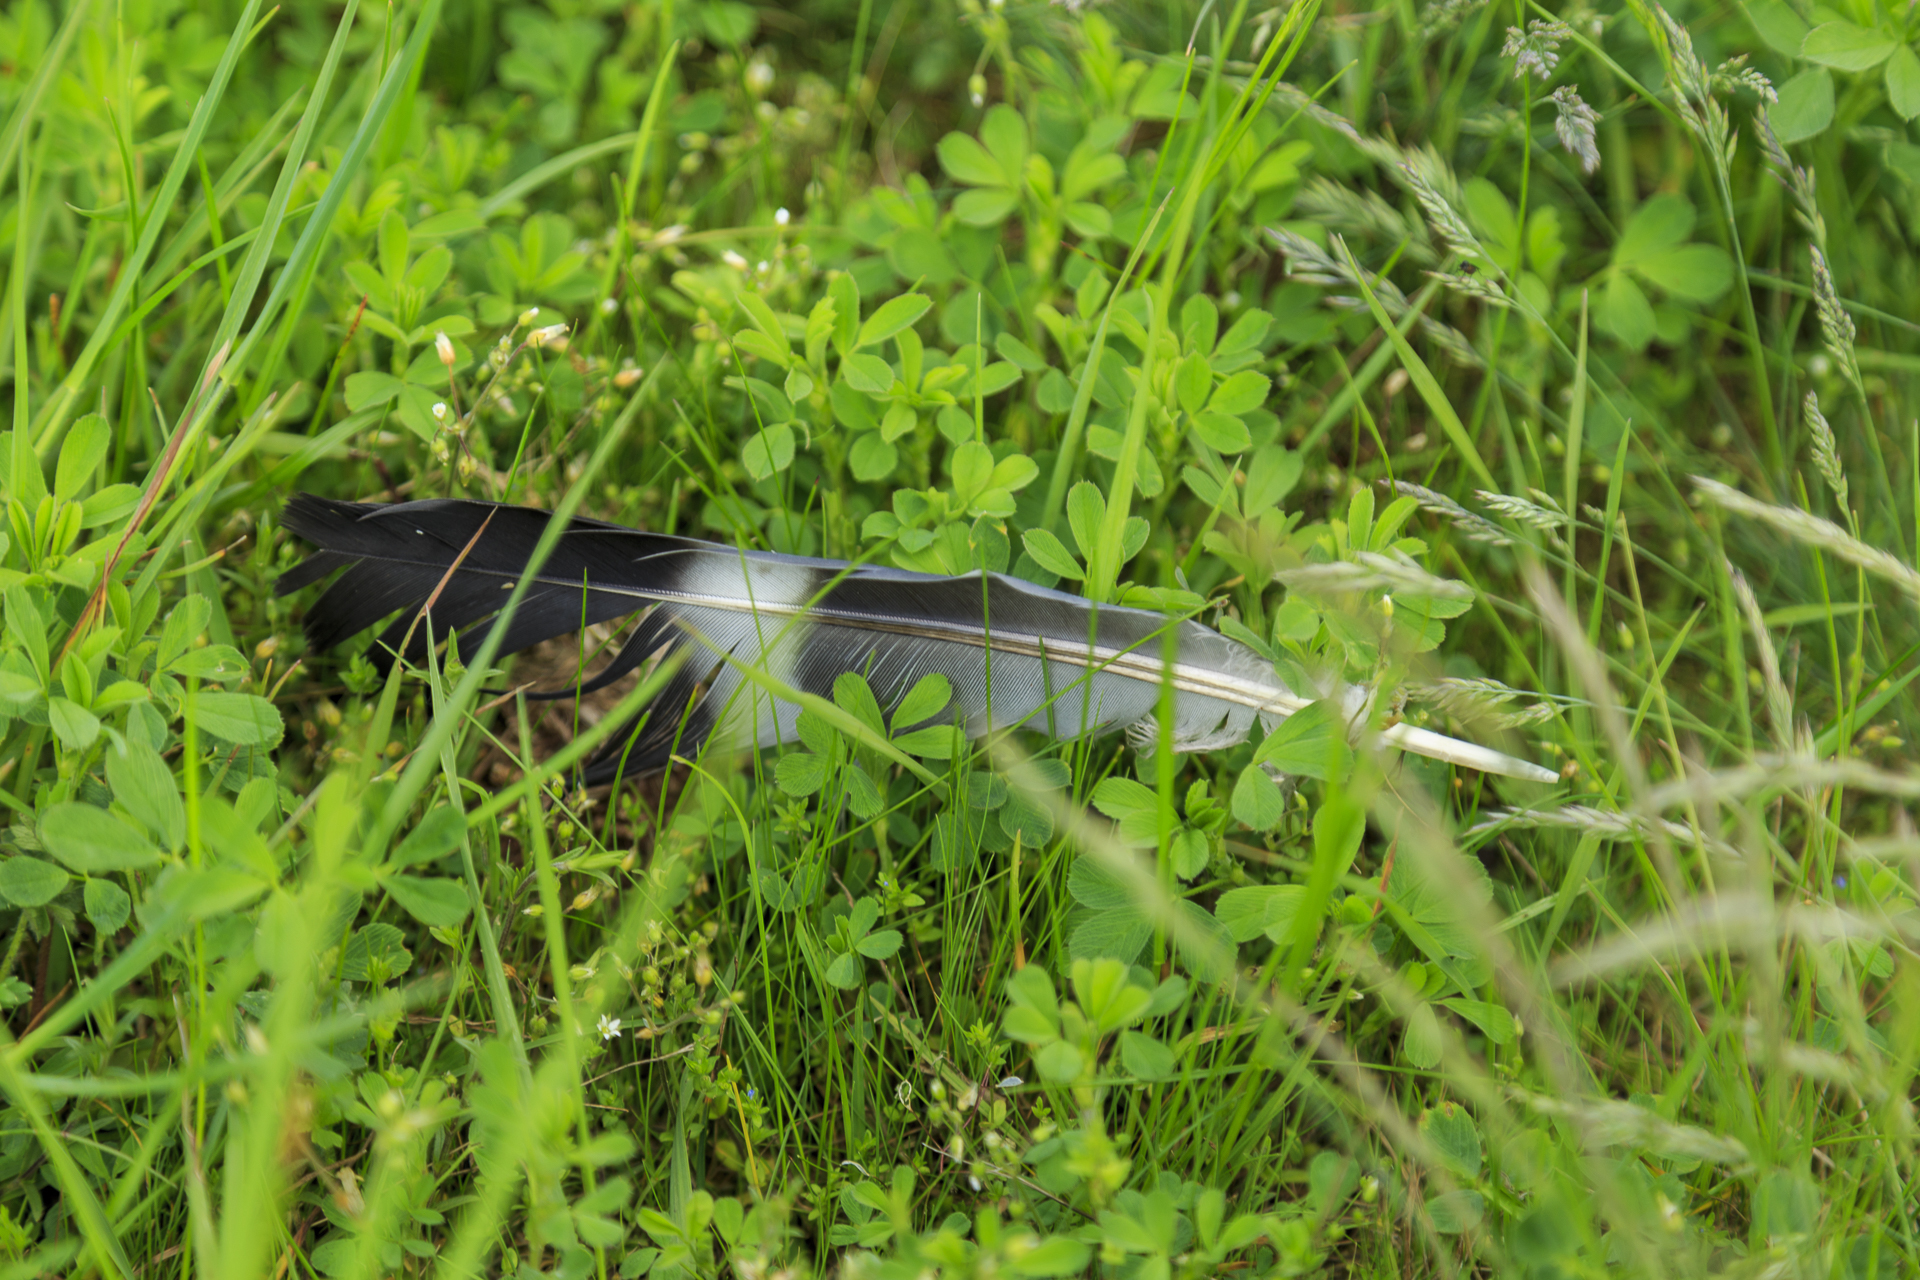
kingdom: Animalia
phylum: Chordata
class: Aves
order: Columbiformes
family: Columbidae
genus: Columba
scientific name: Columba palumbus
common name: Common wood pigeon
